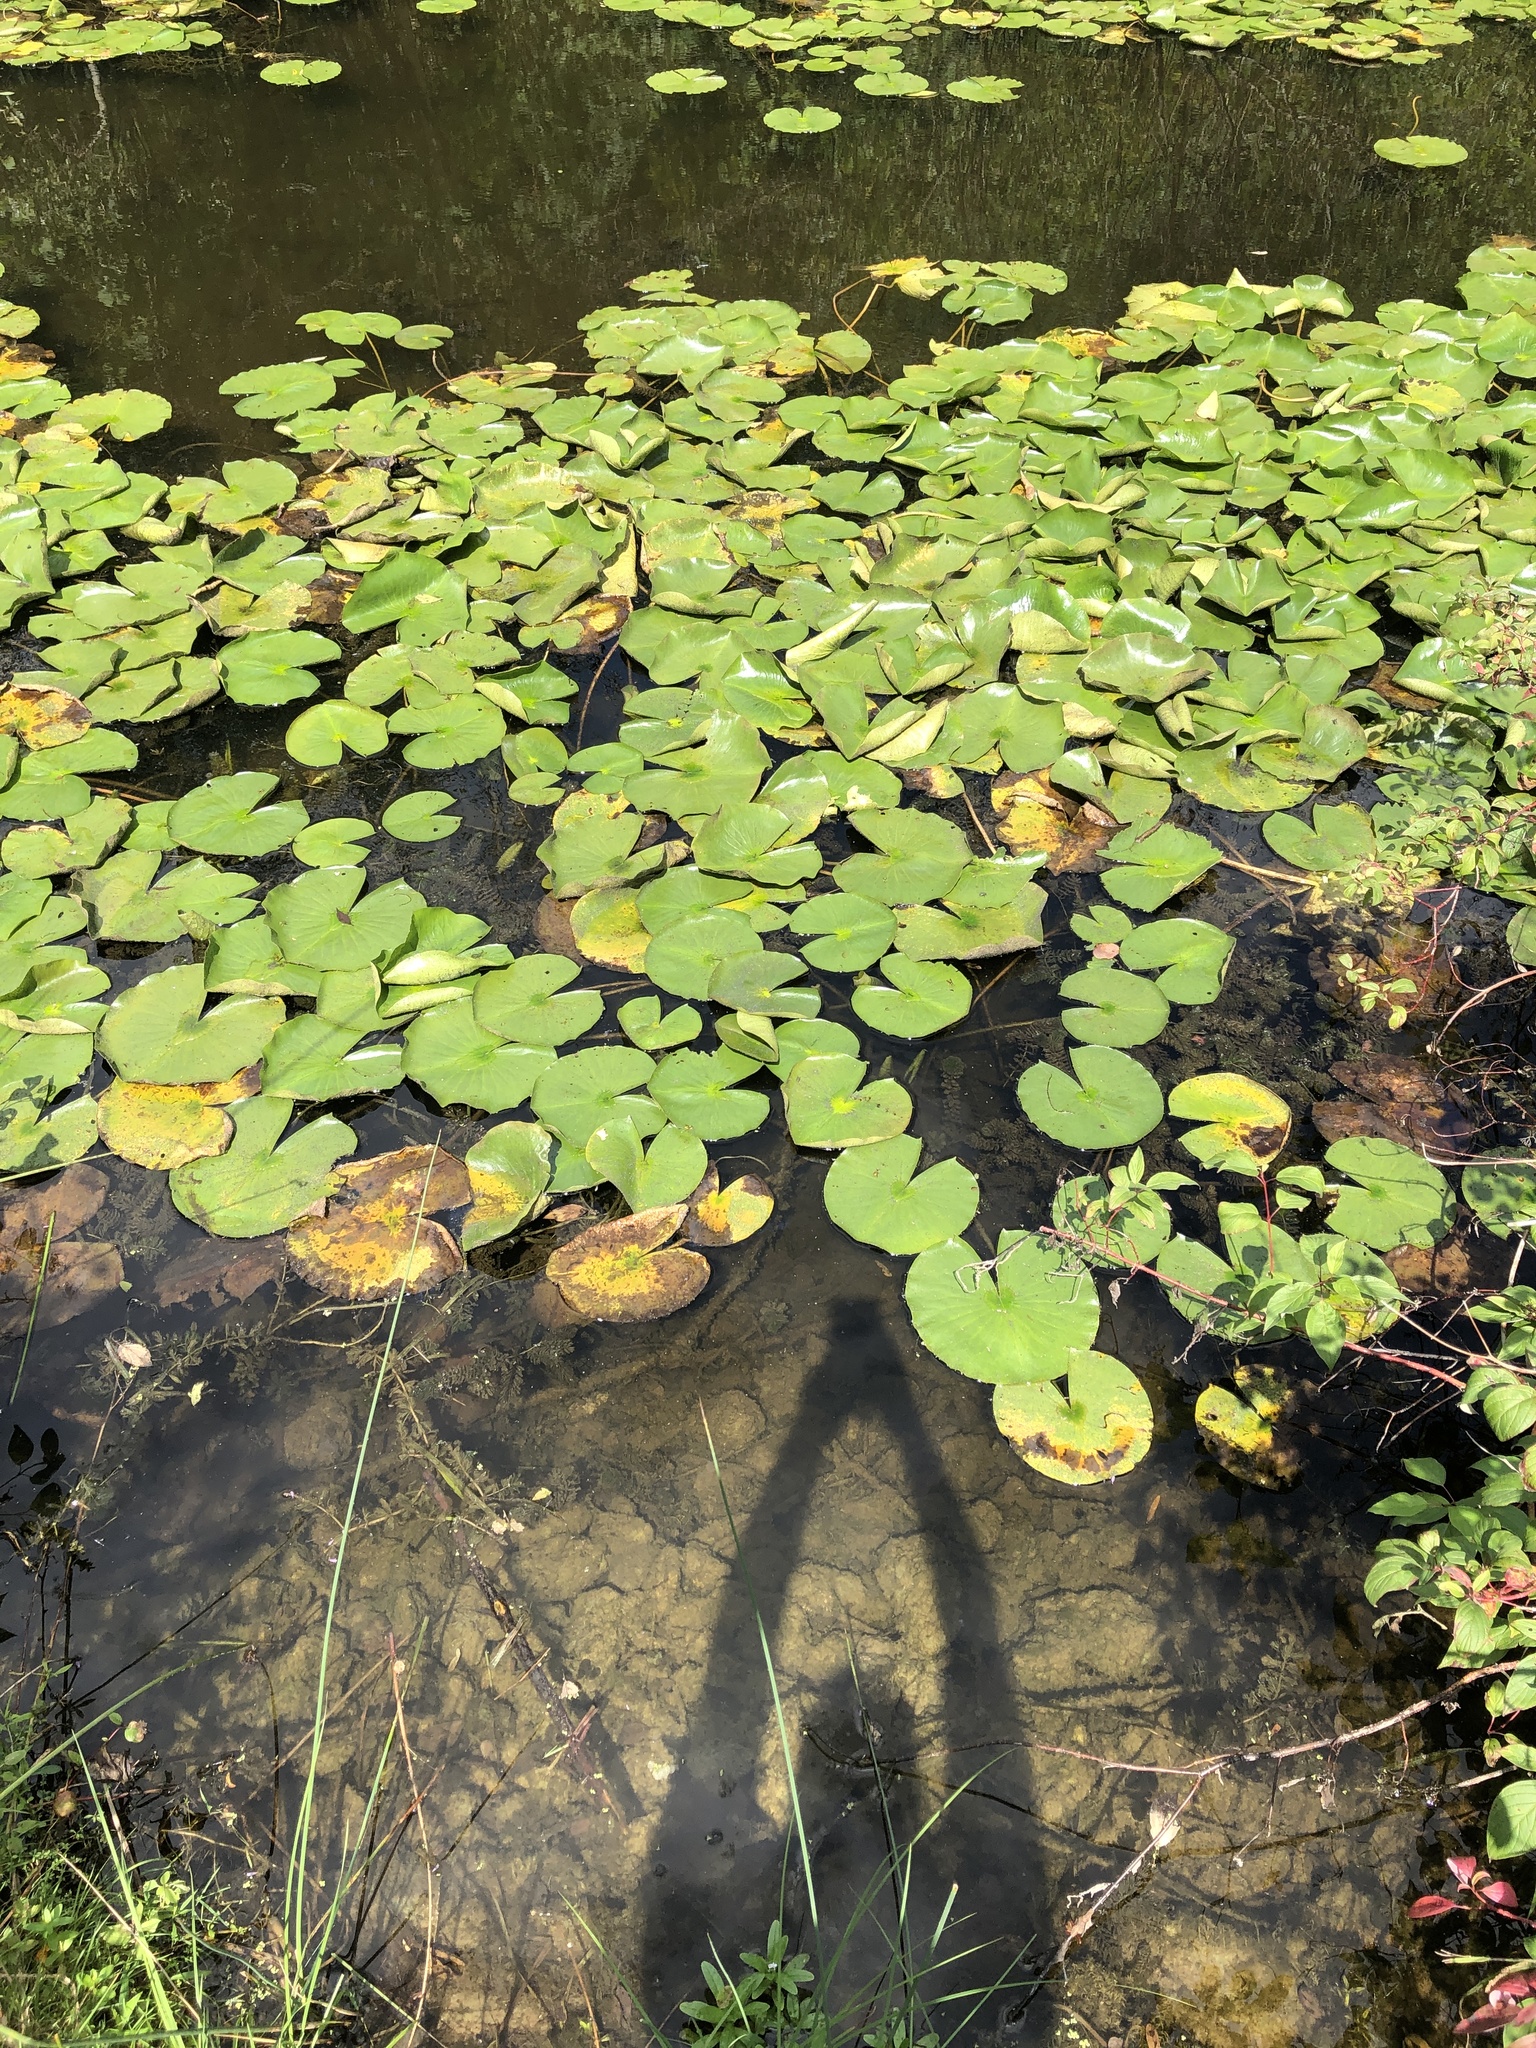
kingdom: Plantae
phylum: Tracheophyta
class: Magnoliopsida
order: Nymphaeales
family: Nymphaeaceae
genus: Nymphaea
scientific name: Nymphaea odorata
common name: Fragrant water-lily
